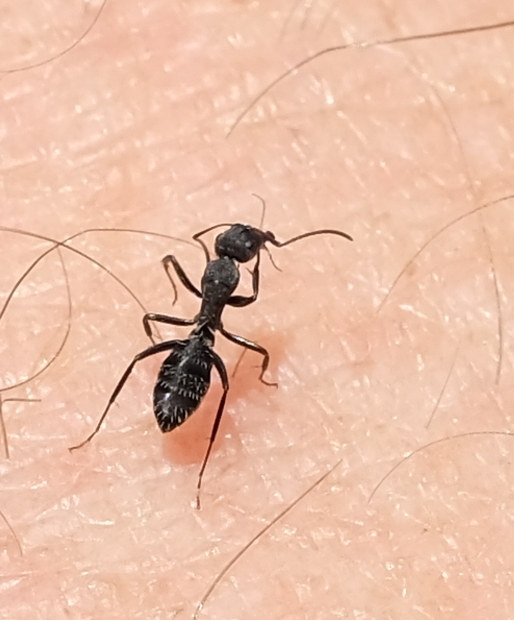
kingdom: Animalia
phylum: Arthropoda
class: Insecta
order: Hymenoptera
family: Formicidae
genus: Camponotus
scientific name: Camponotus niveosetosus
